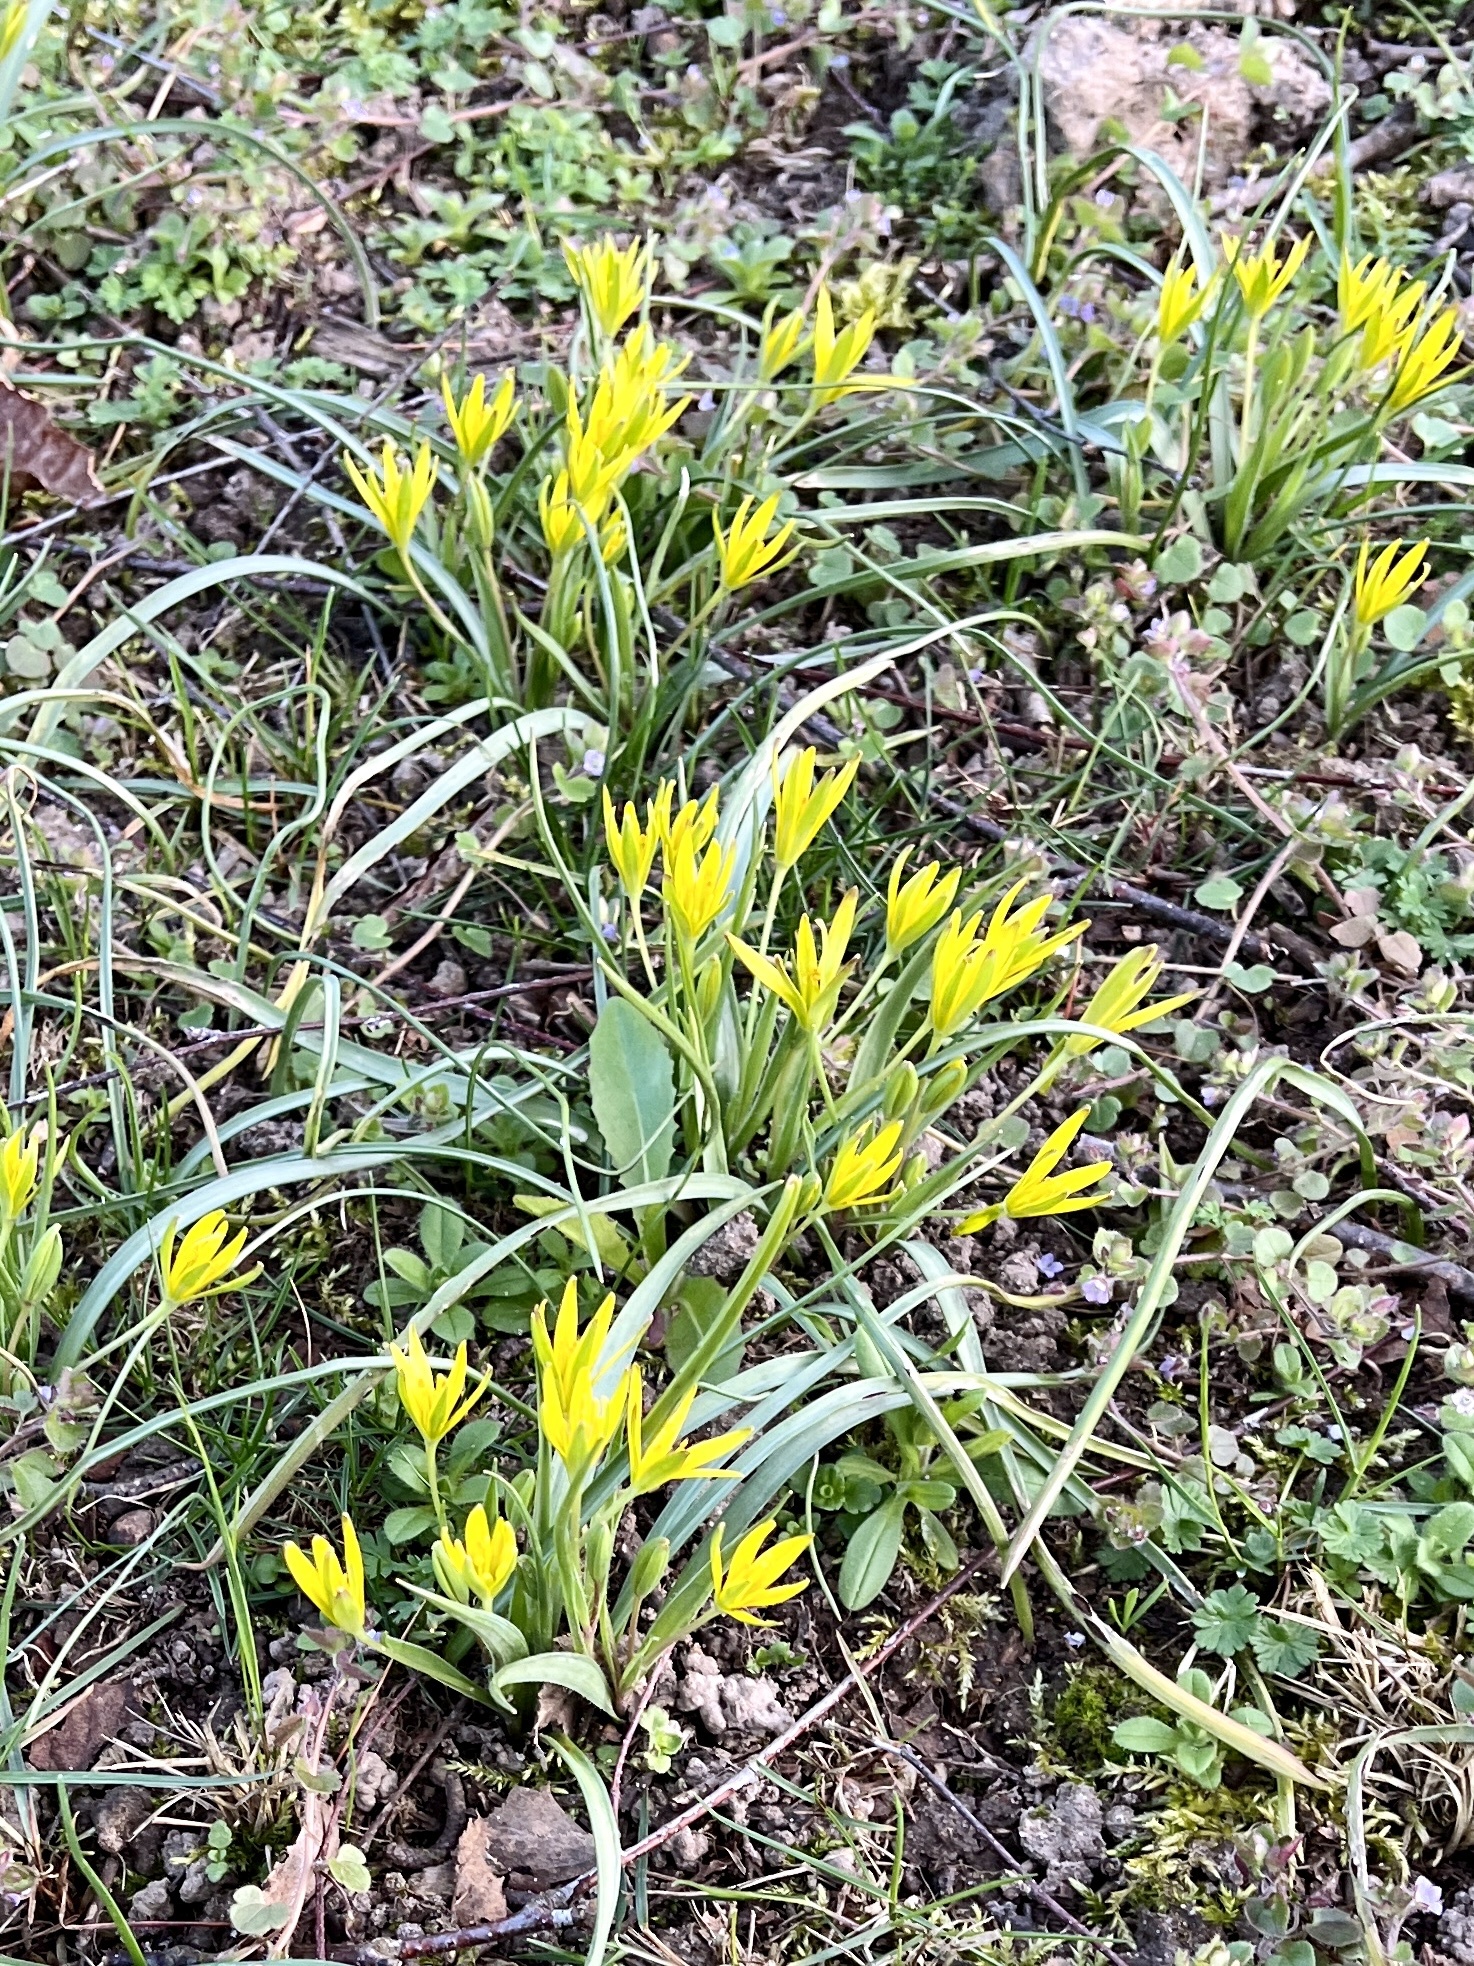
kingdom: Plantae
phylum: Tracheophyta
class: Liliopsida
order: Liliales
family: Liliaceae
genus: Gagea
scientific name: Gagea pratensis
